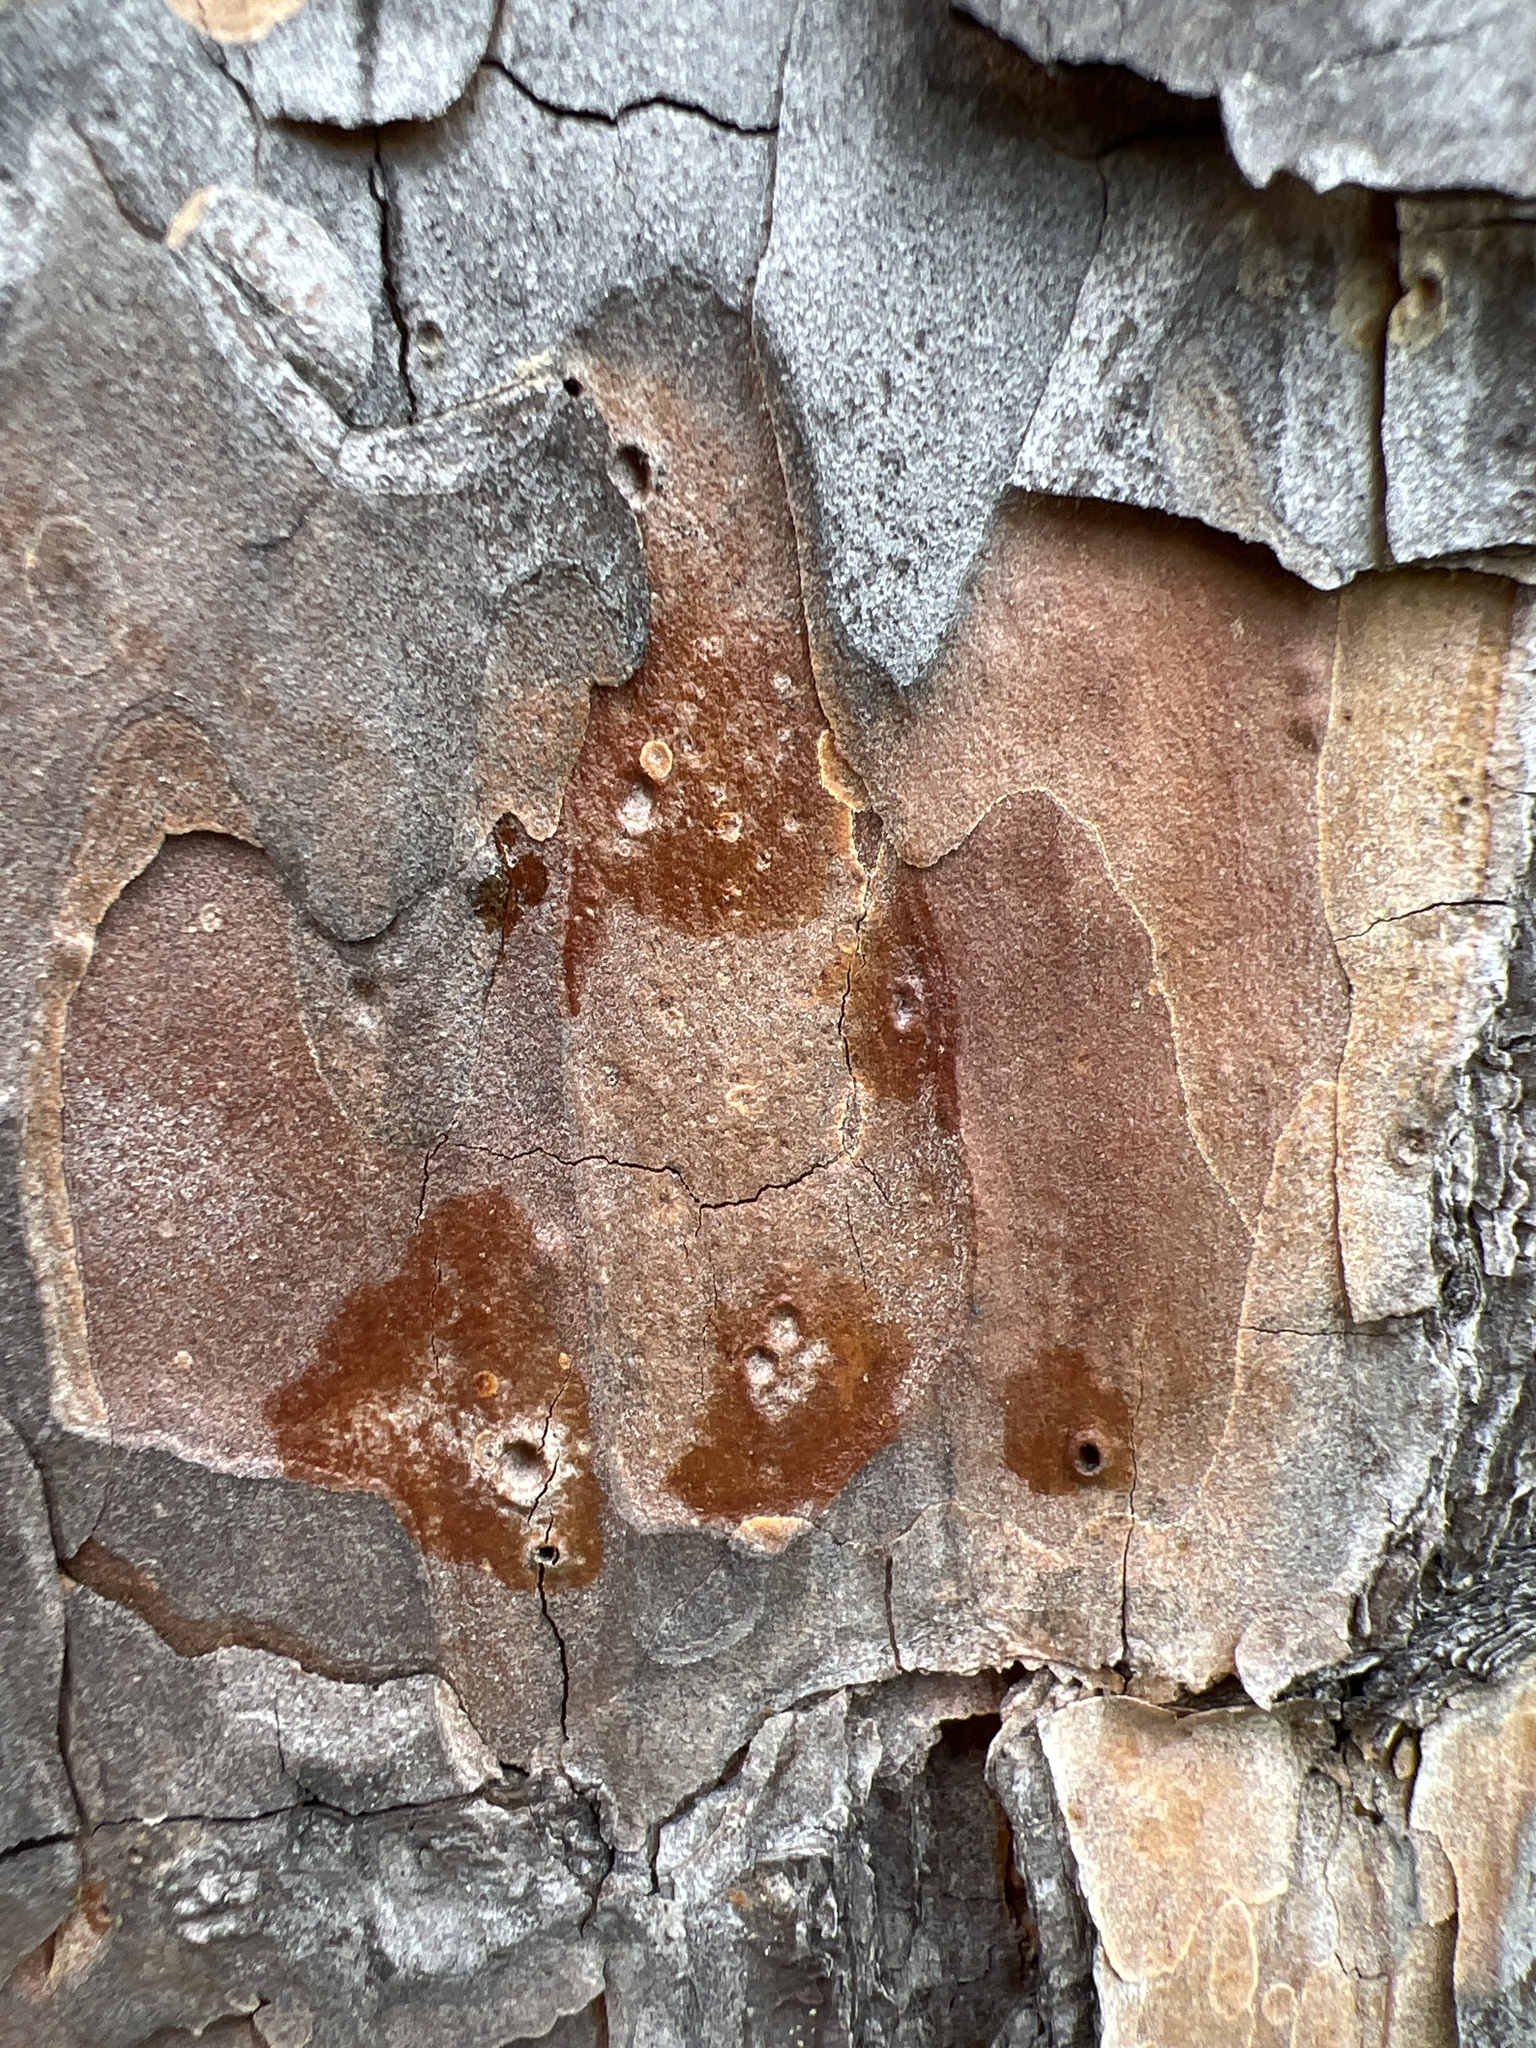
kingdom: Plantae
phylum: Tracheophyta
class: Pinopsida
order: Pinales
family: Pinaceae
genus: Pinus
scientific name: Pinus echinata
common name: Shortleaf pine
